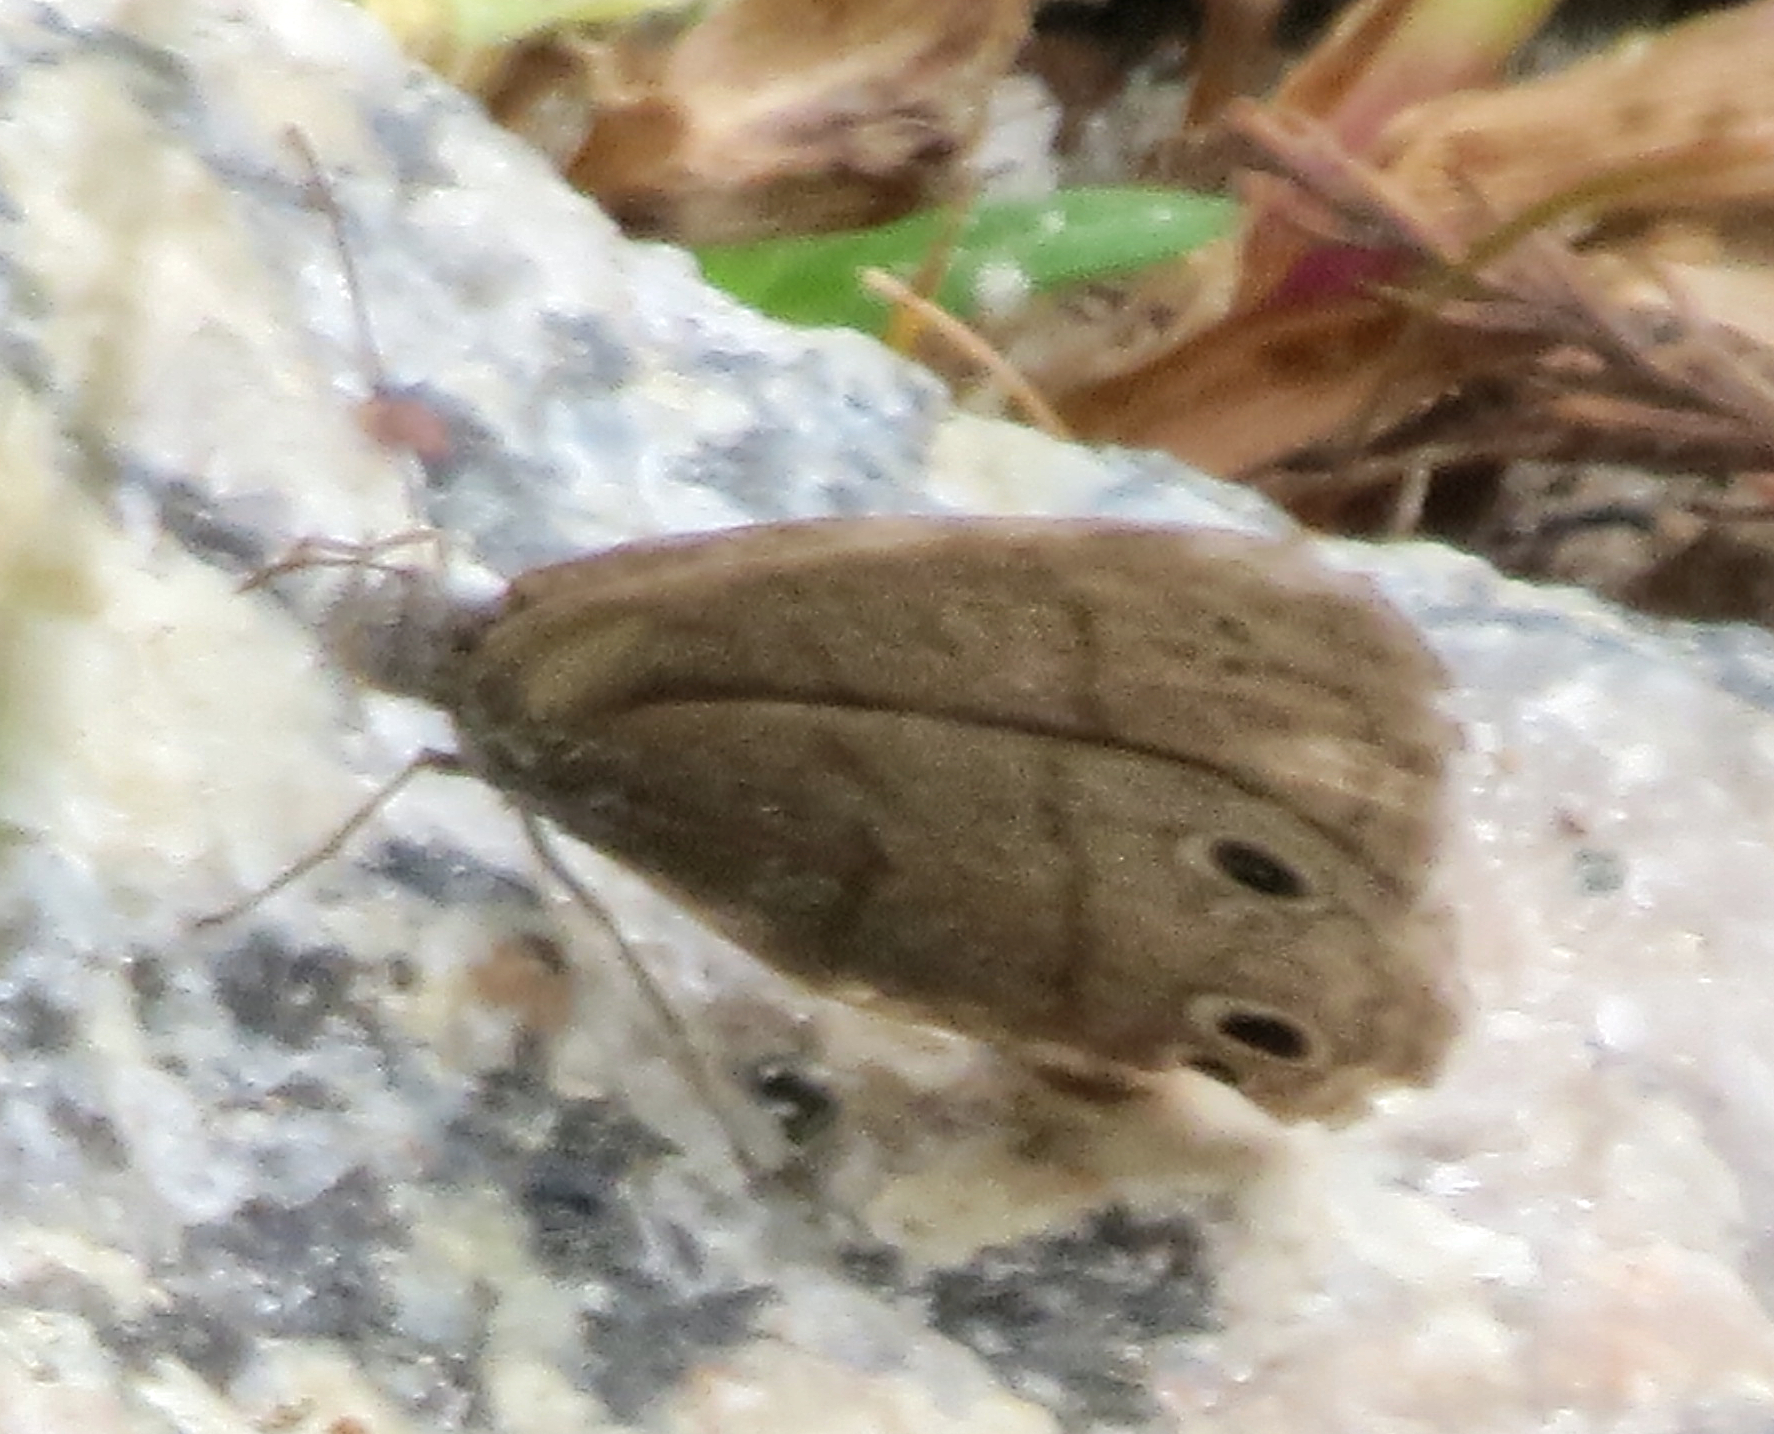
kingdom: Animalia
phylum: Arthropoda
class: Insecta
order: Lepidoptera
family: Nymphalidae
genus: Hermeuptychia
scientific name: Hermeuptychia hermes
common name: Hermes satyr
